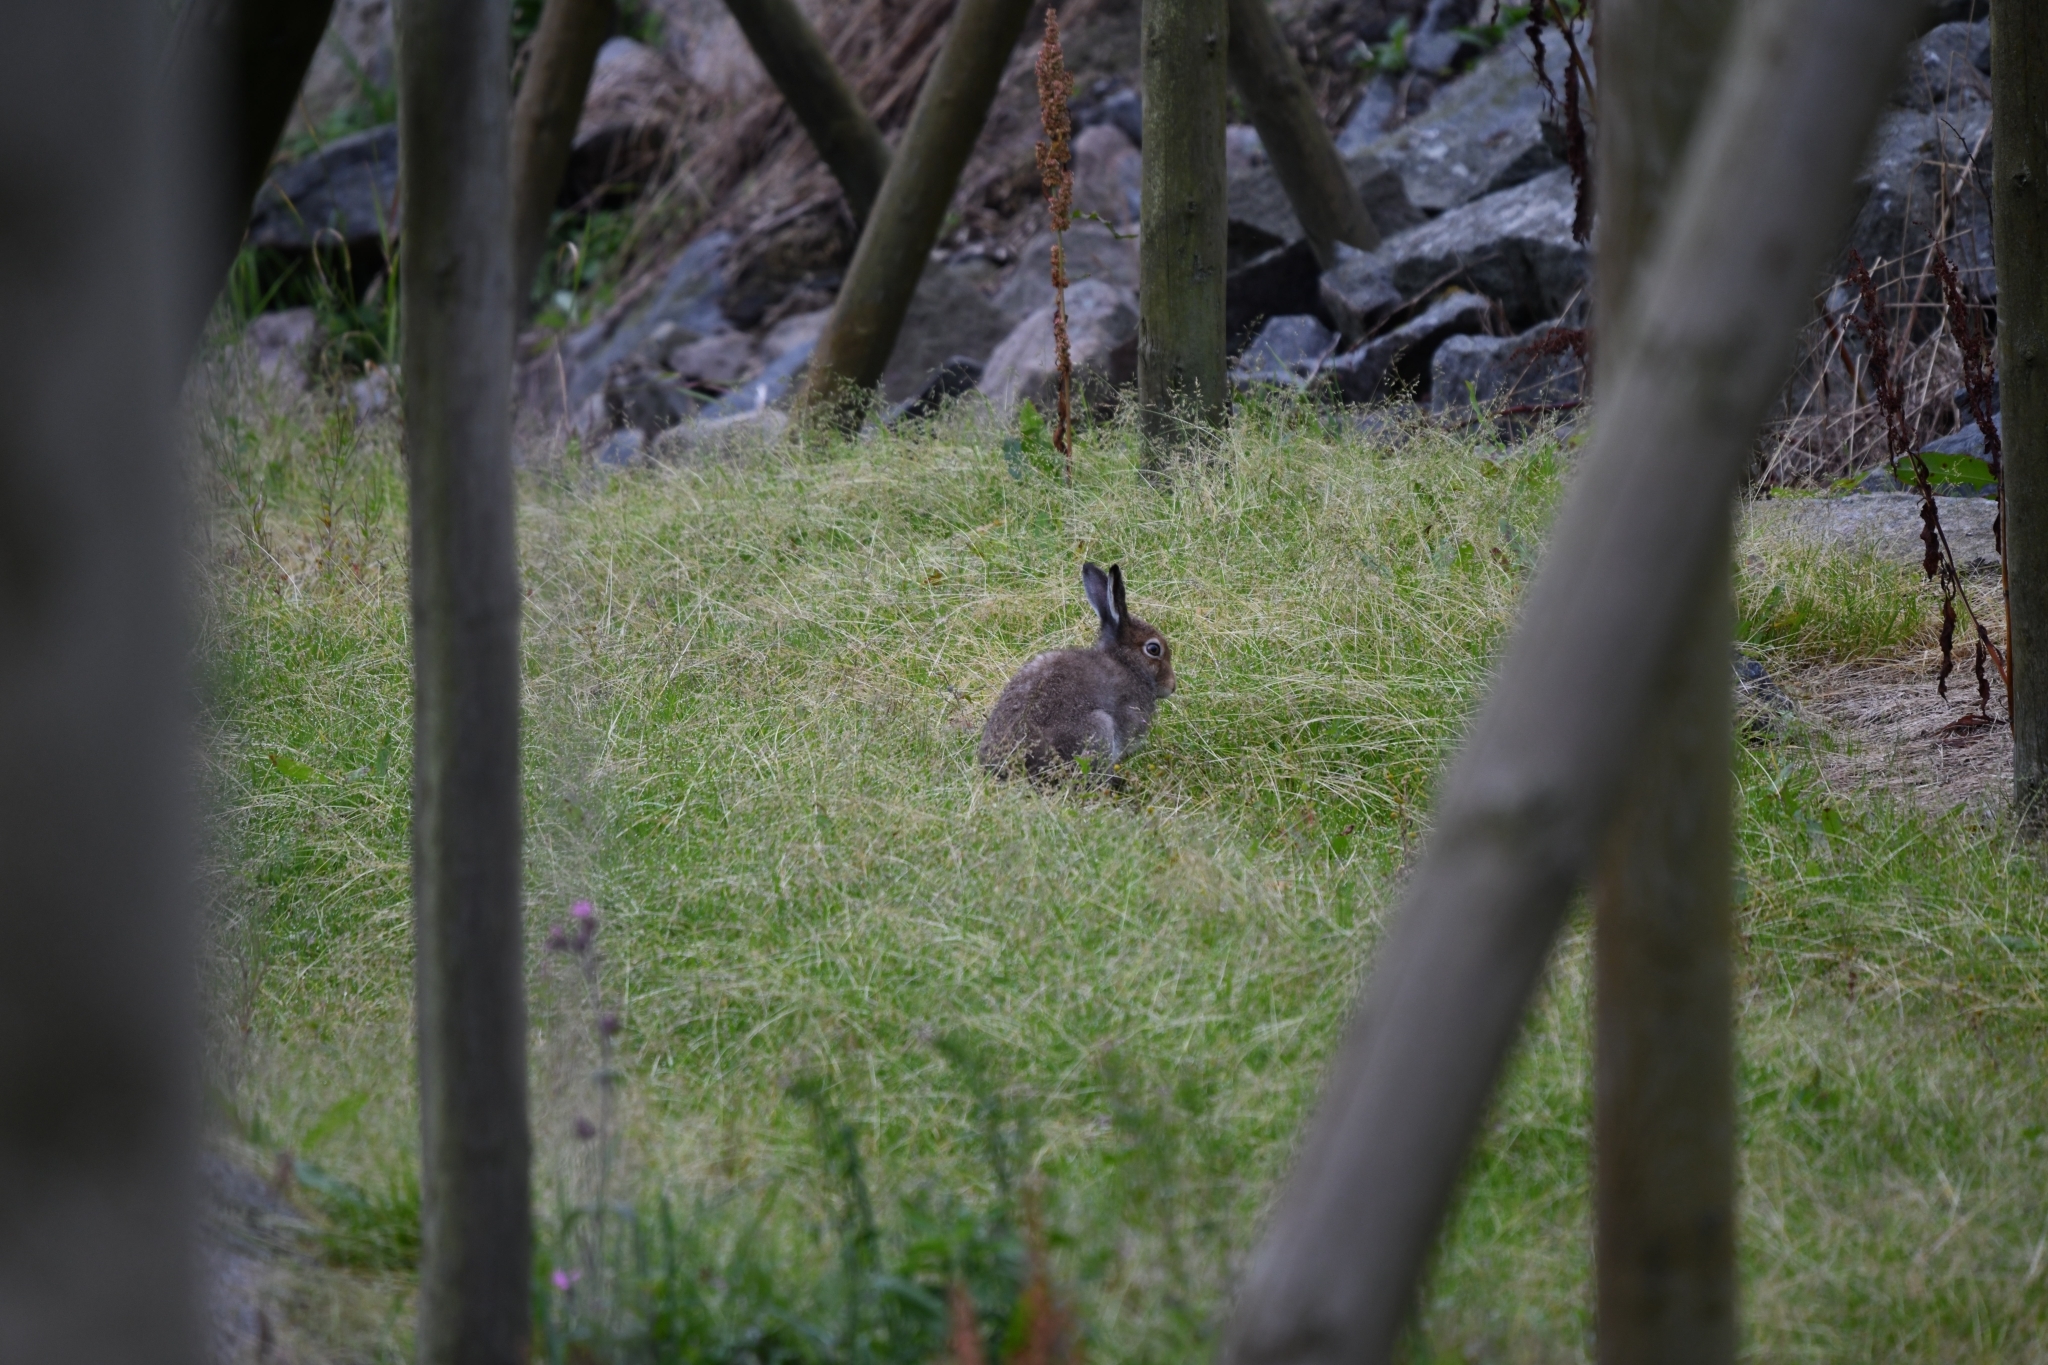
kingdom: Animalia
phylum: Chordata
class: Mammalia
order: Lagomorpha
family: Leporidae
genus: Lepus
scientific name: Lepus timidus
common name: Mountain hare
